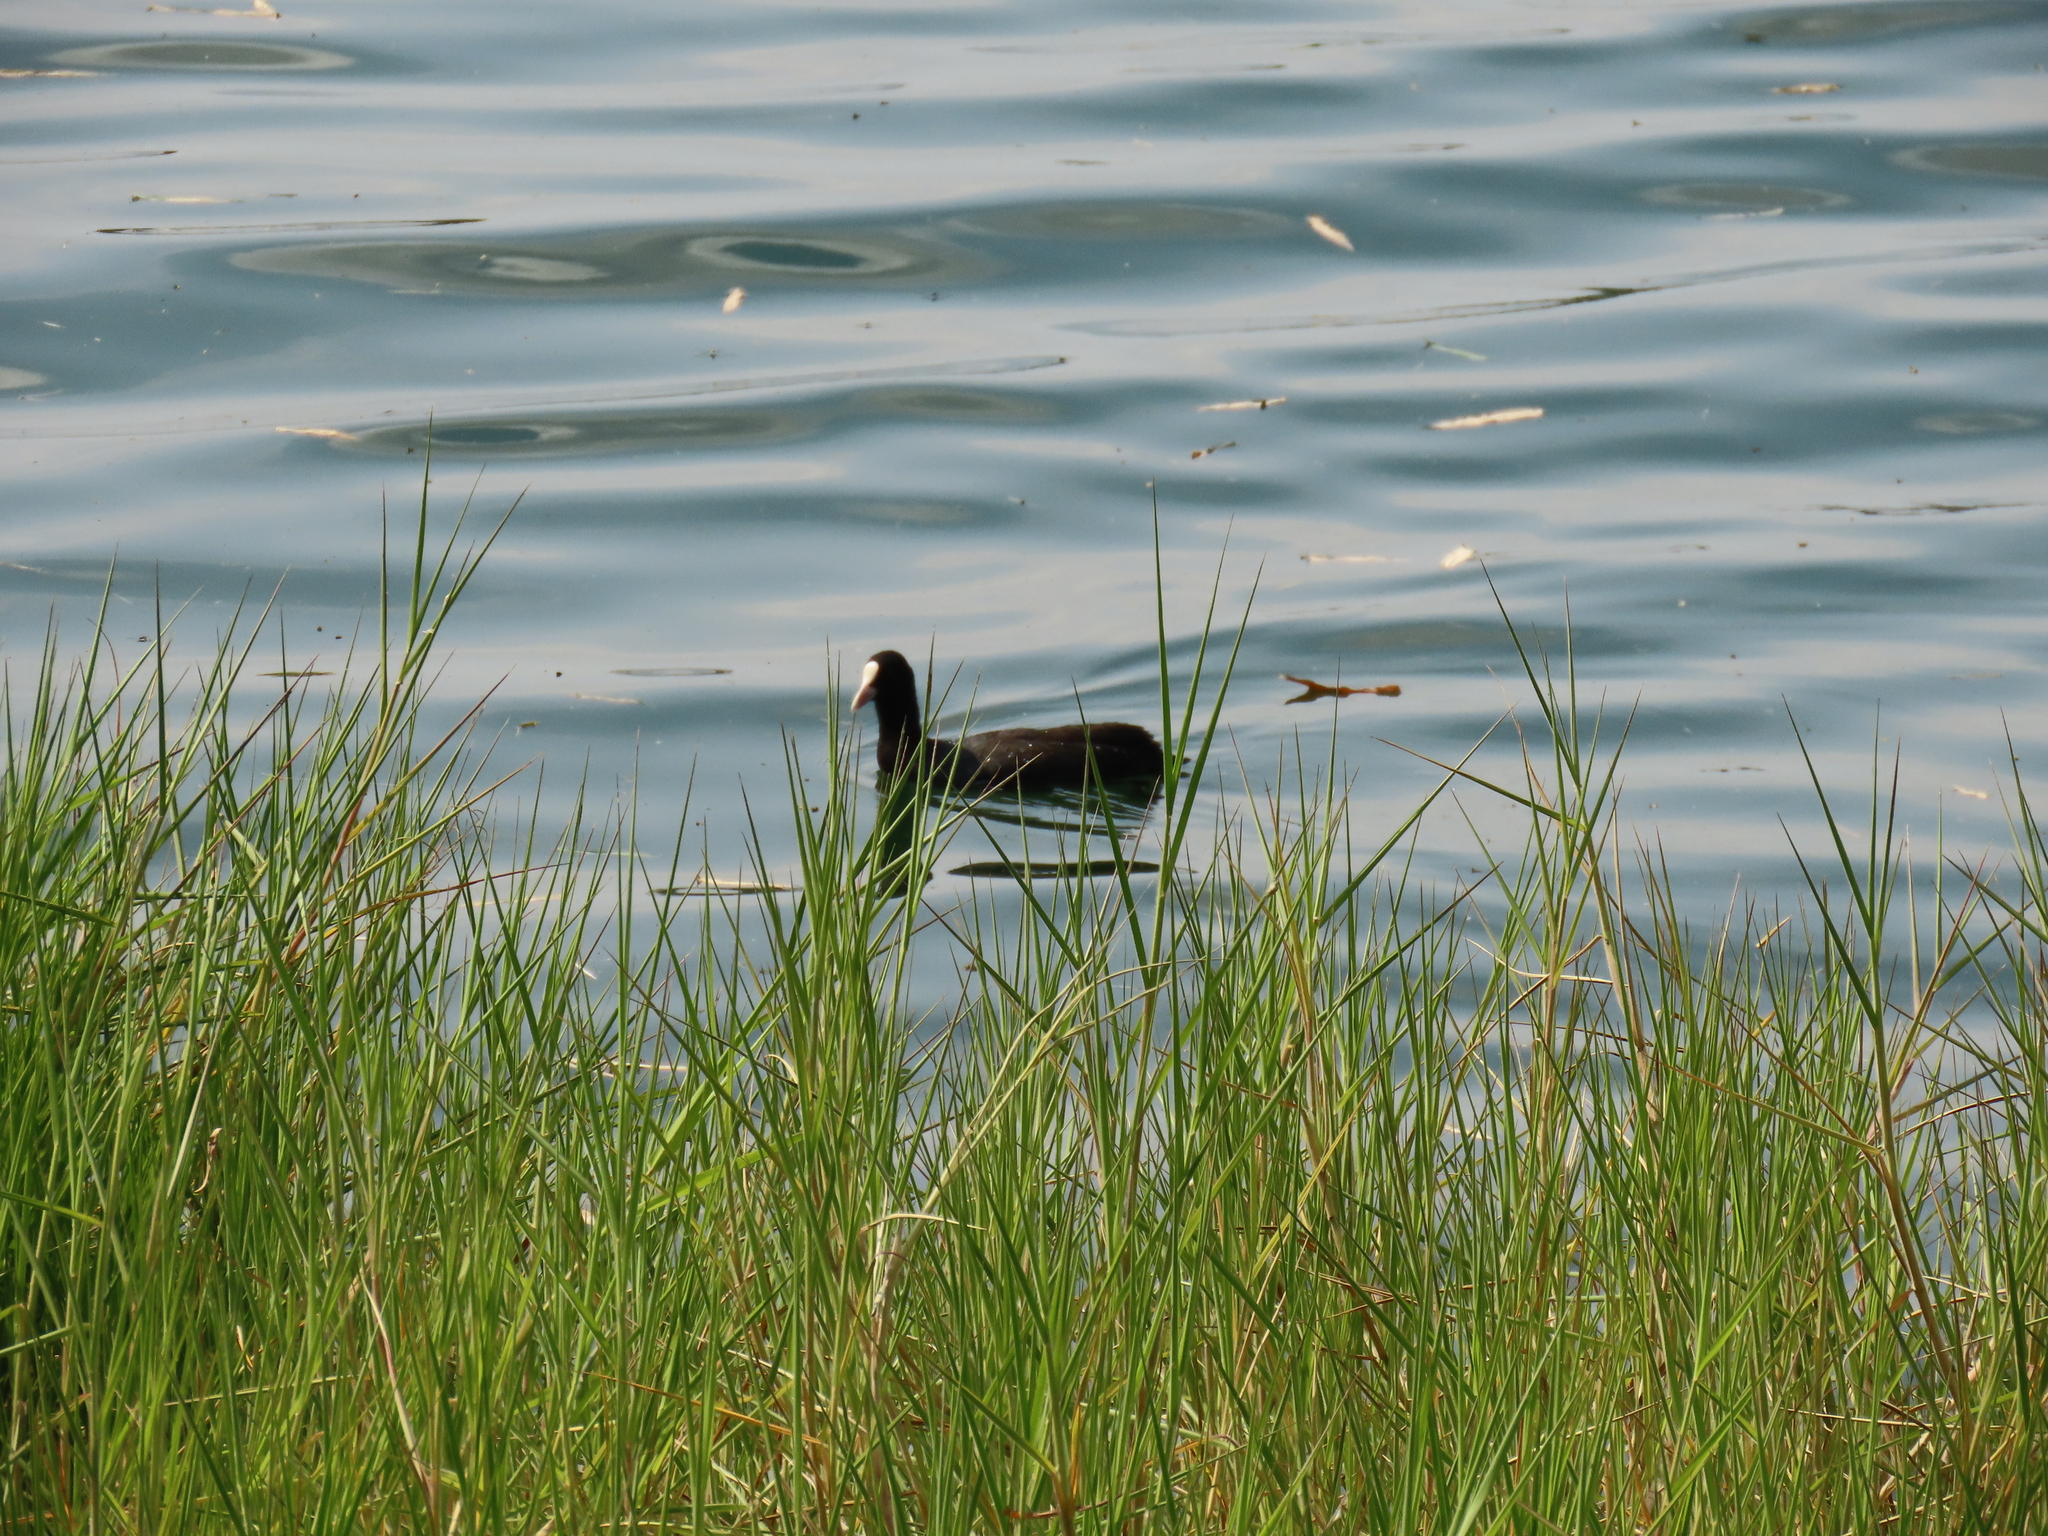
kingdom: Animalia
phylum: Chordata
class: Aves
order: Gruiformes
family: Rallidae
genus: Fulica
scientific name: Fulica atra
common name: Eurasian coot
